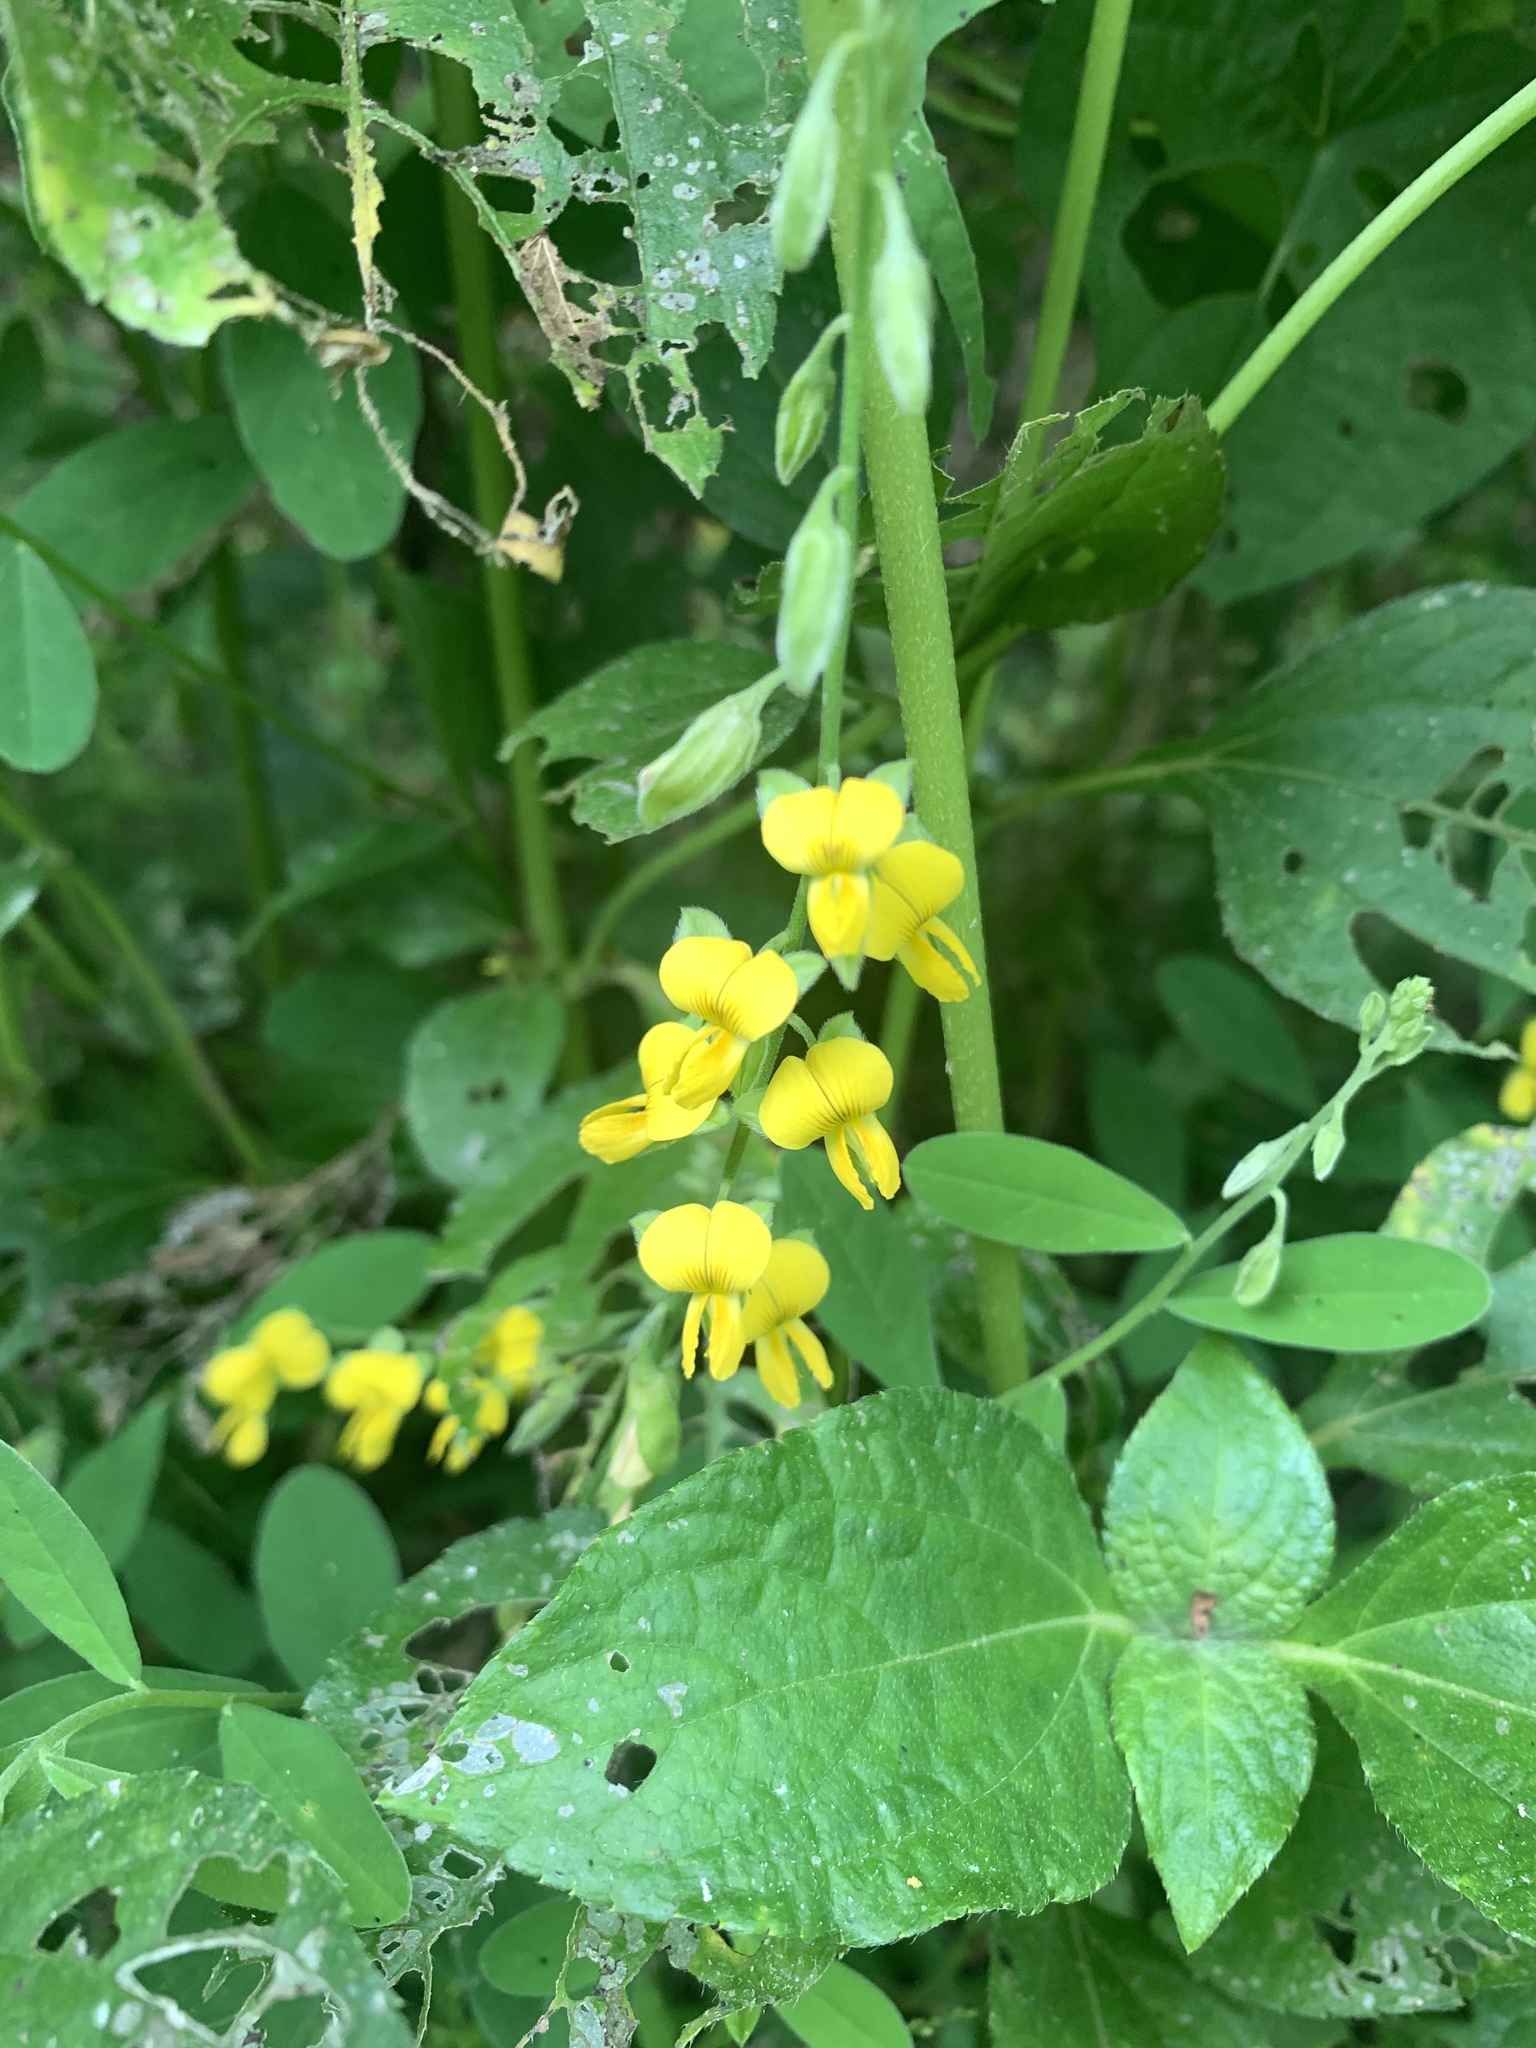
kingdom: Plantae
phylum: Tracheophyta
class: Magnoliopsida
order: Fabales
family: Fabaceae
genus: Crotalaria
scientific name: Crotalaria albida
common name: Taiwan crotalaria
